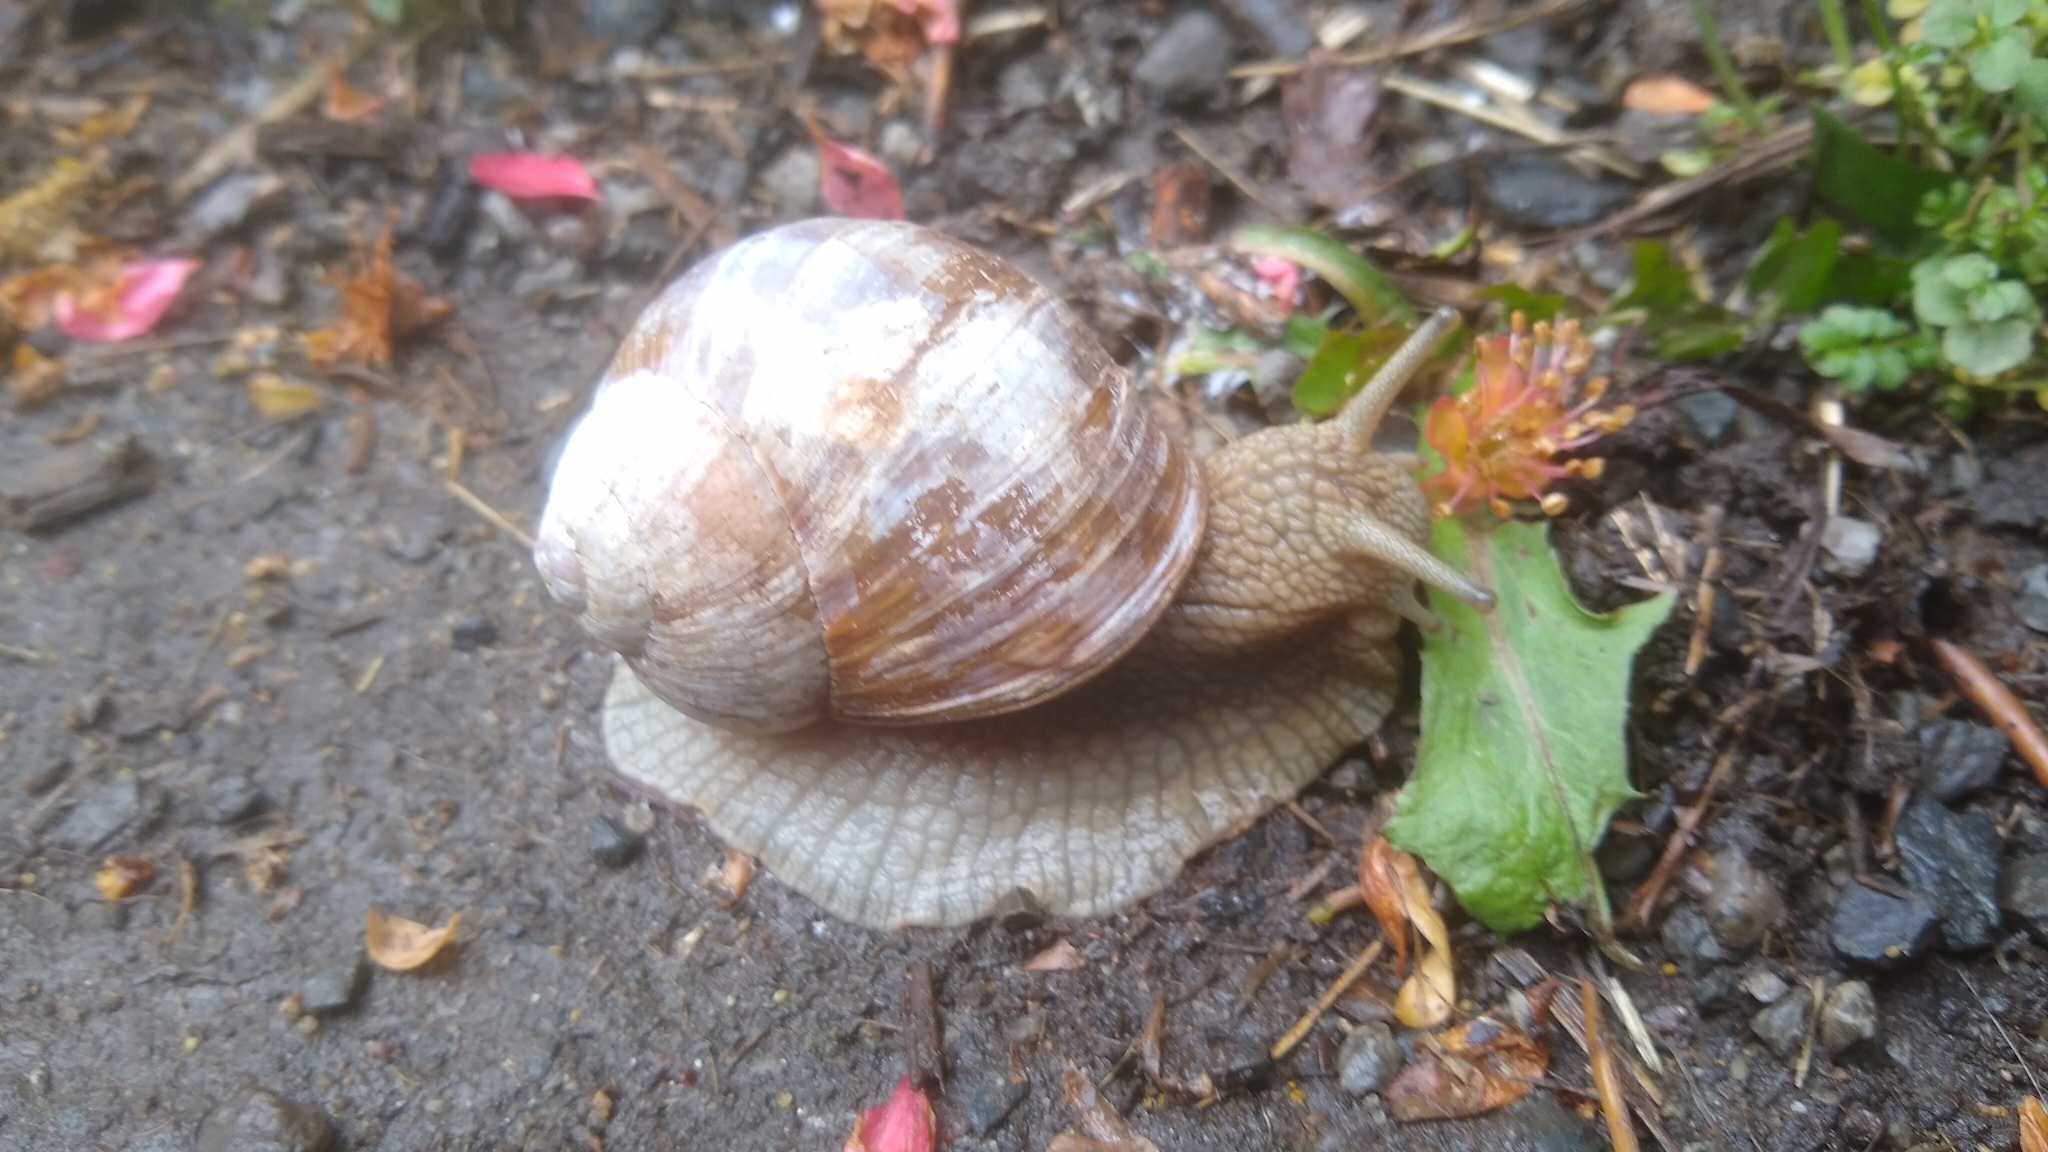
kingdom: Animalia
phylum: Mollusca
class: Gastropoda
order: Stylommatophora
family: Helicidae
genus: Helix
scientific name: Helix pomatia
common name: Roman snail
